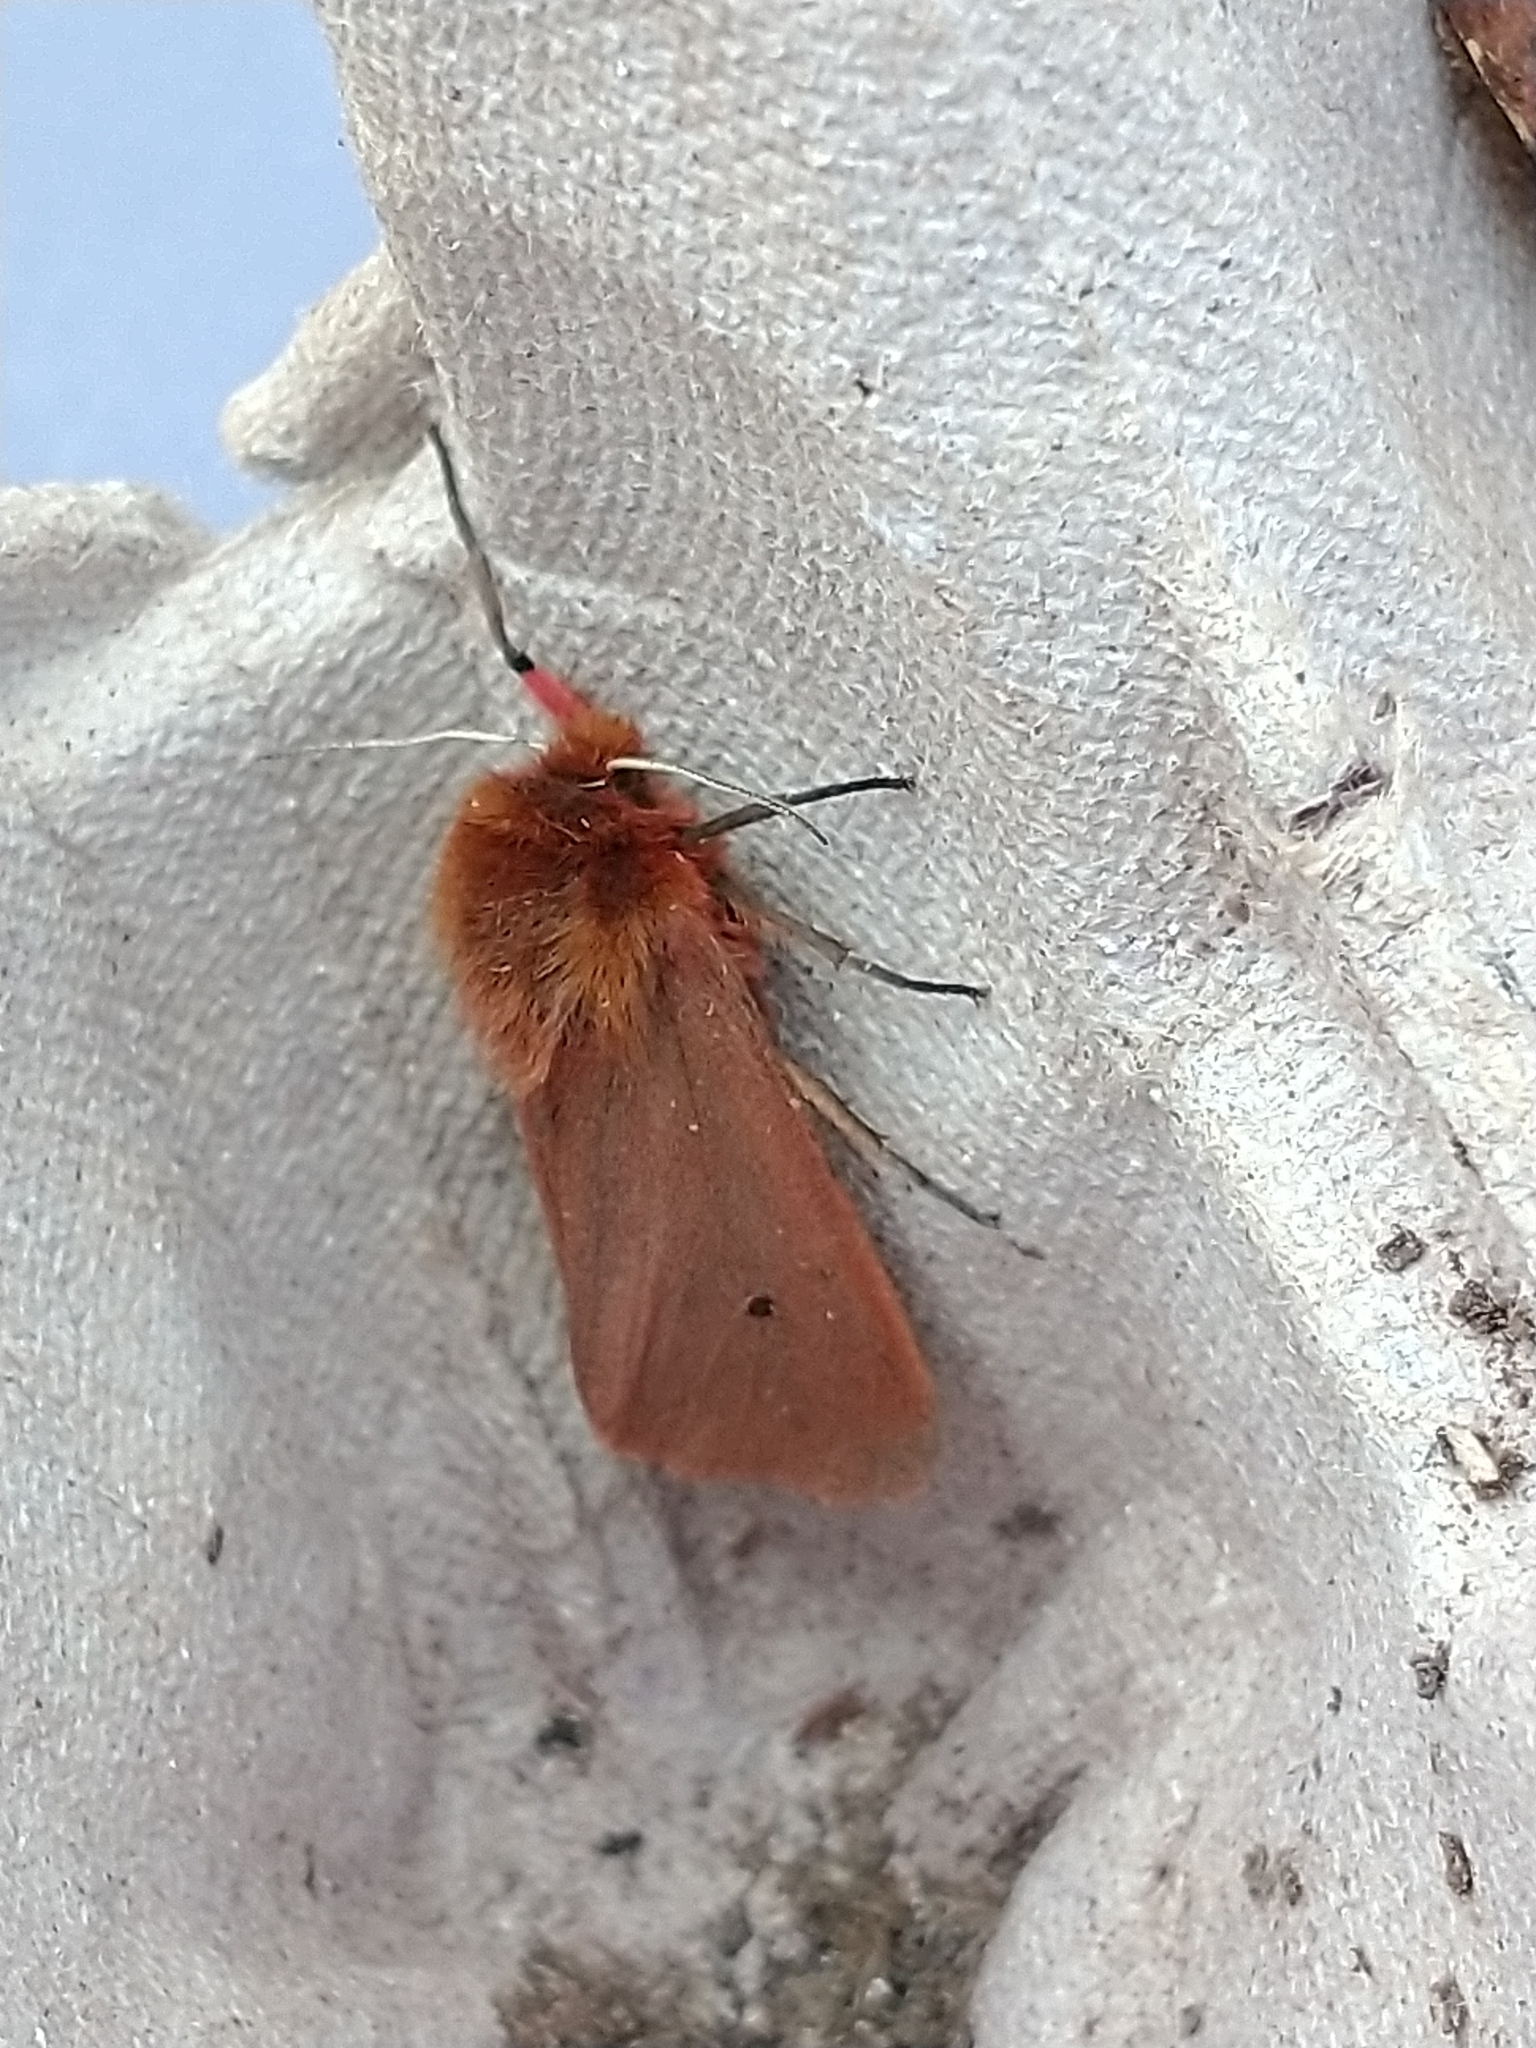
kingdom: Animalia
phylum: Arthropoda
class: Insecta
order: Lepidoptera
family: Erebidae
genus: Phragmatobia
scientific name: Phragmatobia fuliginosa
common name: Ruby tiger
